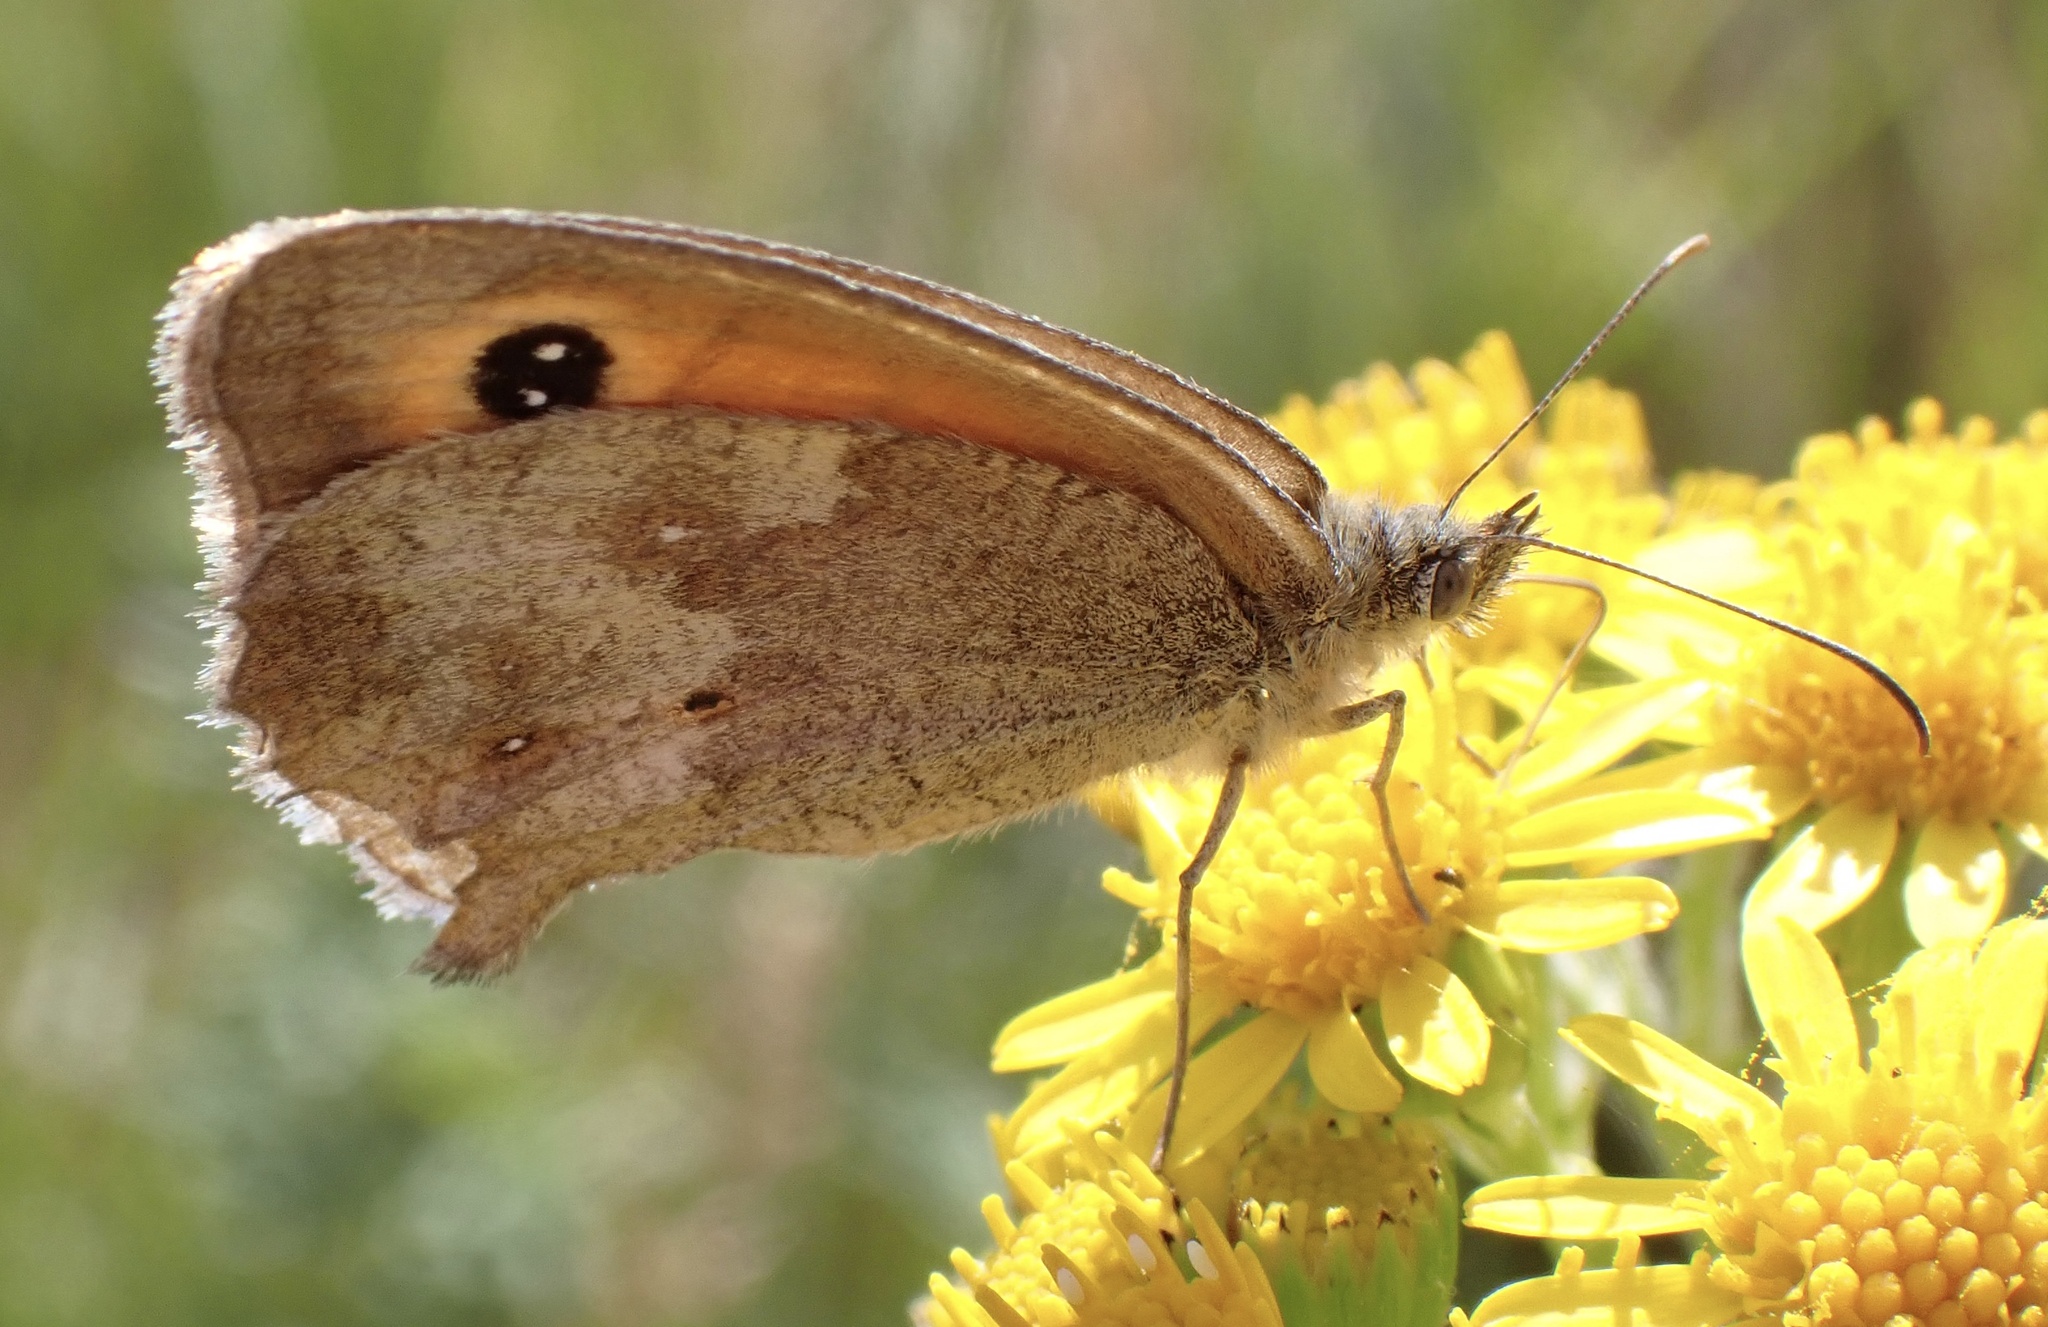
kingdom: Animalia
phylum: Arthropoda
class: Insecta
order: Lepidoptera
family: Nymphalidae
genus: Pyronia
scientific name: Pyronia tithonus
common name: Gatekeeper
